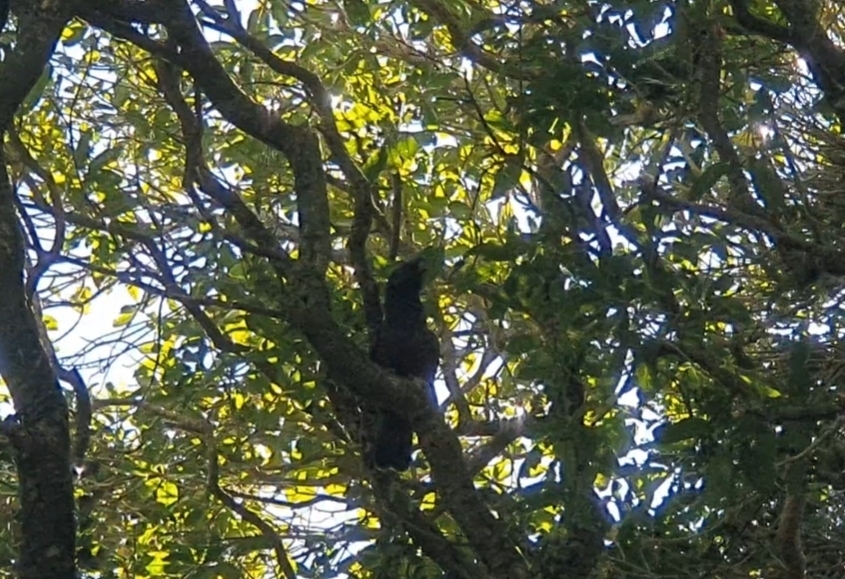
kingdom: Animalia
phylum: Chordata
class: Aves
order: Psittaciformes
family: Psittacidae
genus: Nestor
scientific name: Nestor meridionalis
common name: New zealand kaka
